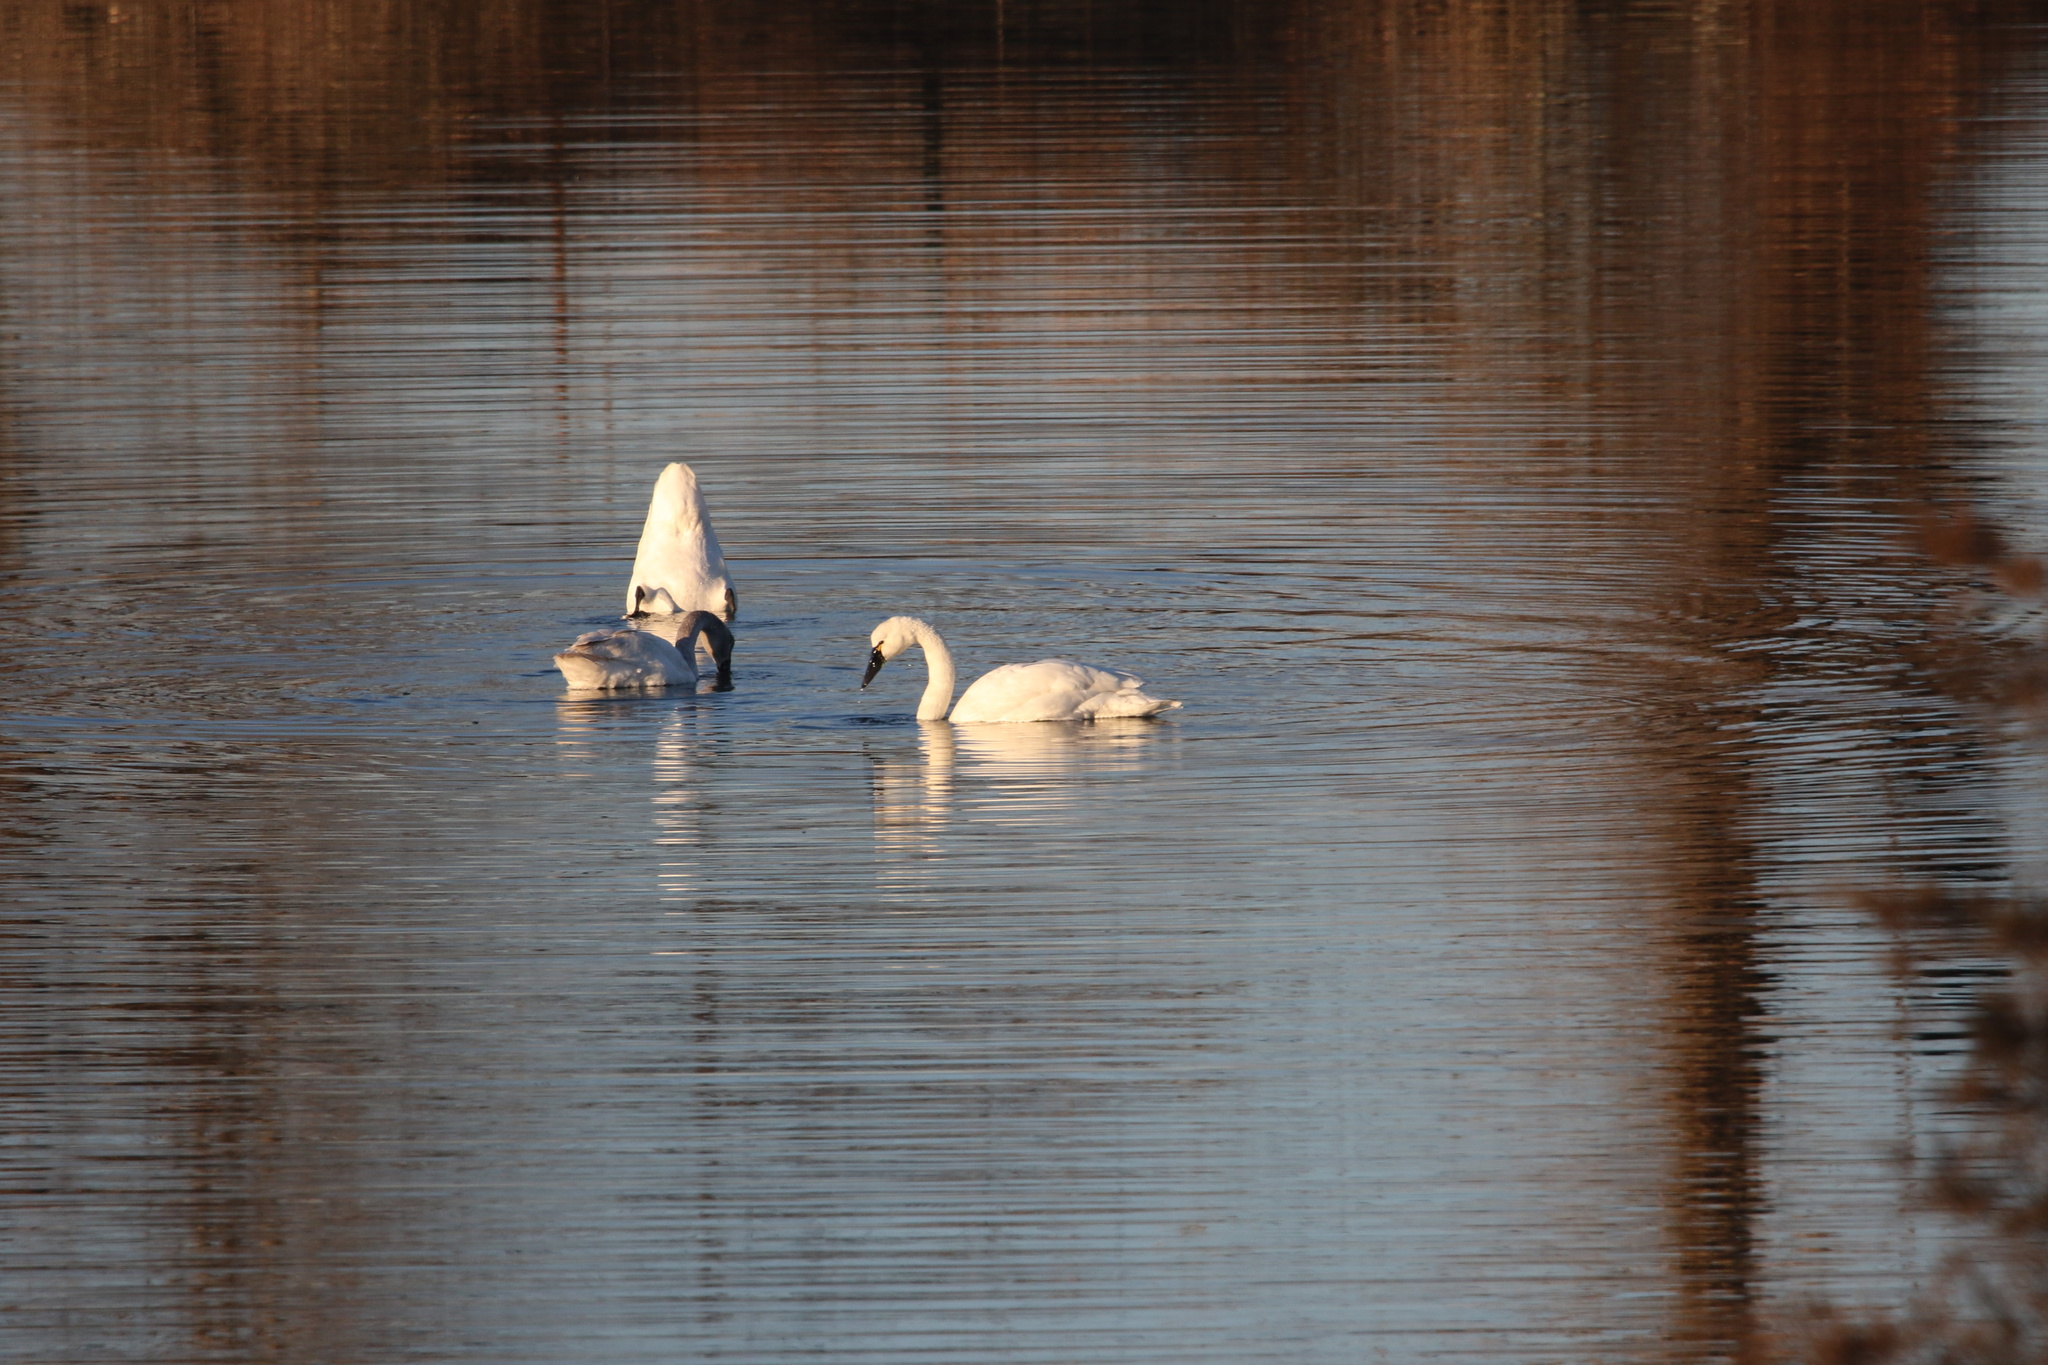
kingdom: Animalia
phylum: Chordata
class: Aves
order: Anseriformes
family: Anatidae
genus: Cygnus
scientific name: Cygnus columbianus
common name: Tundra swan
